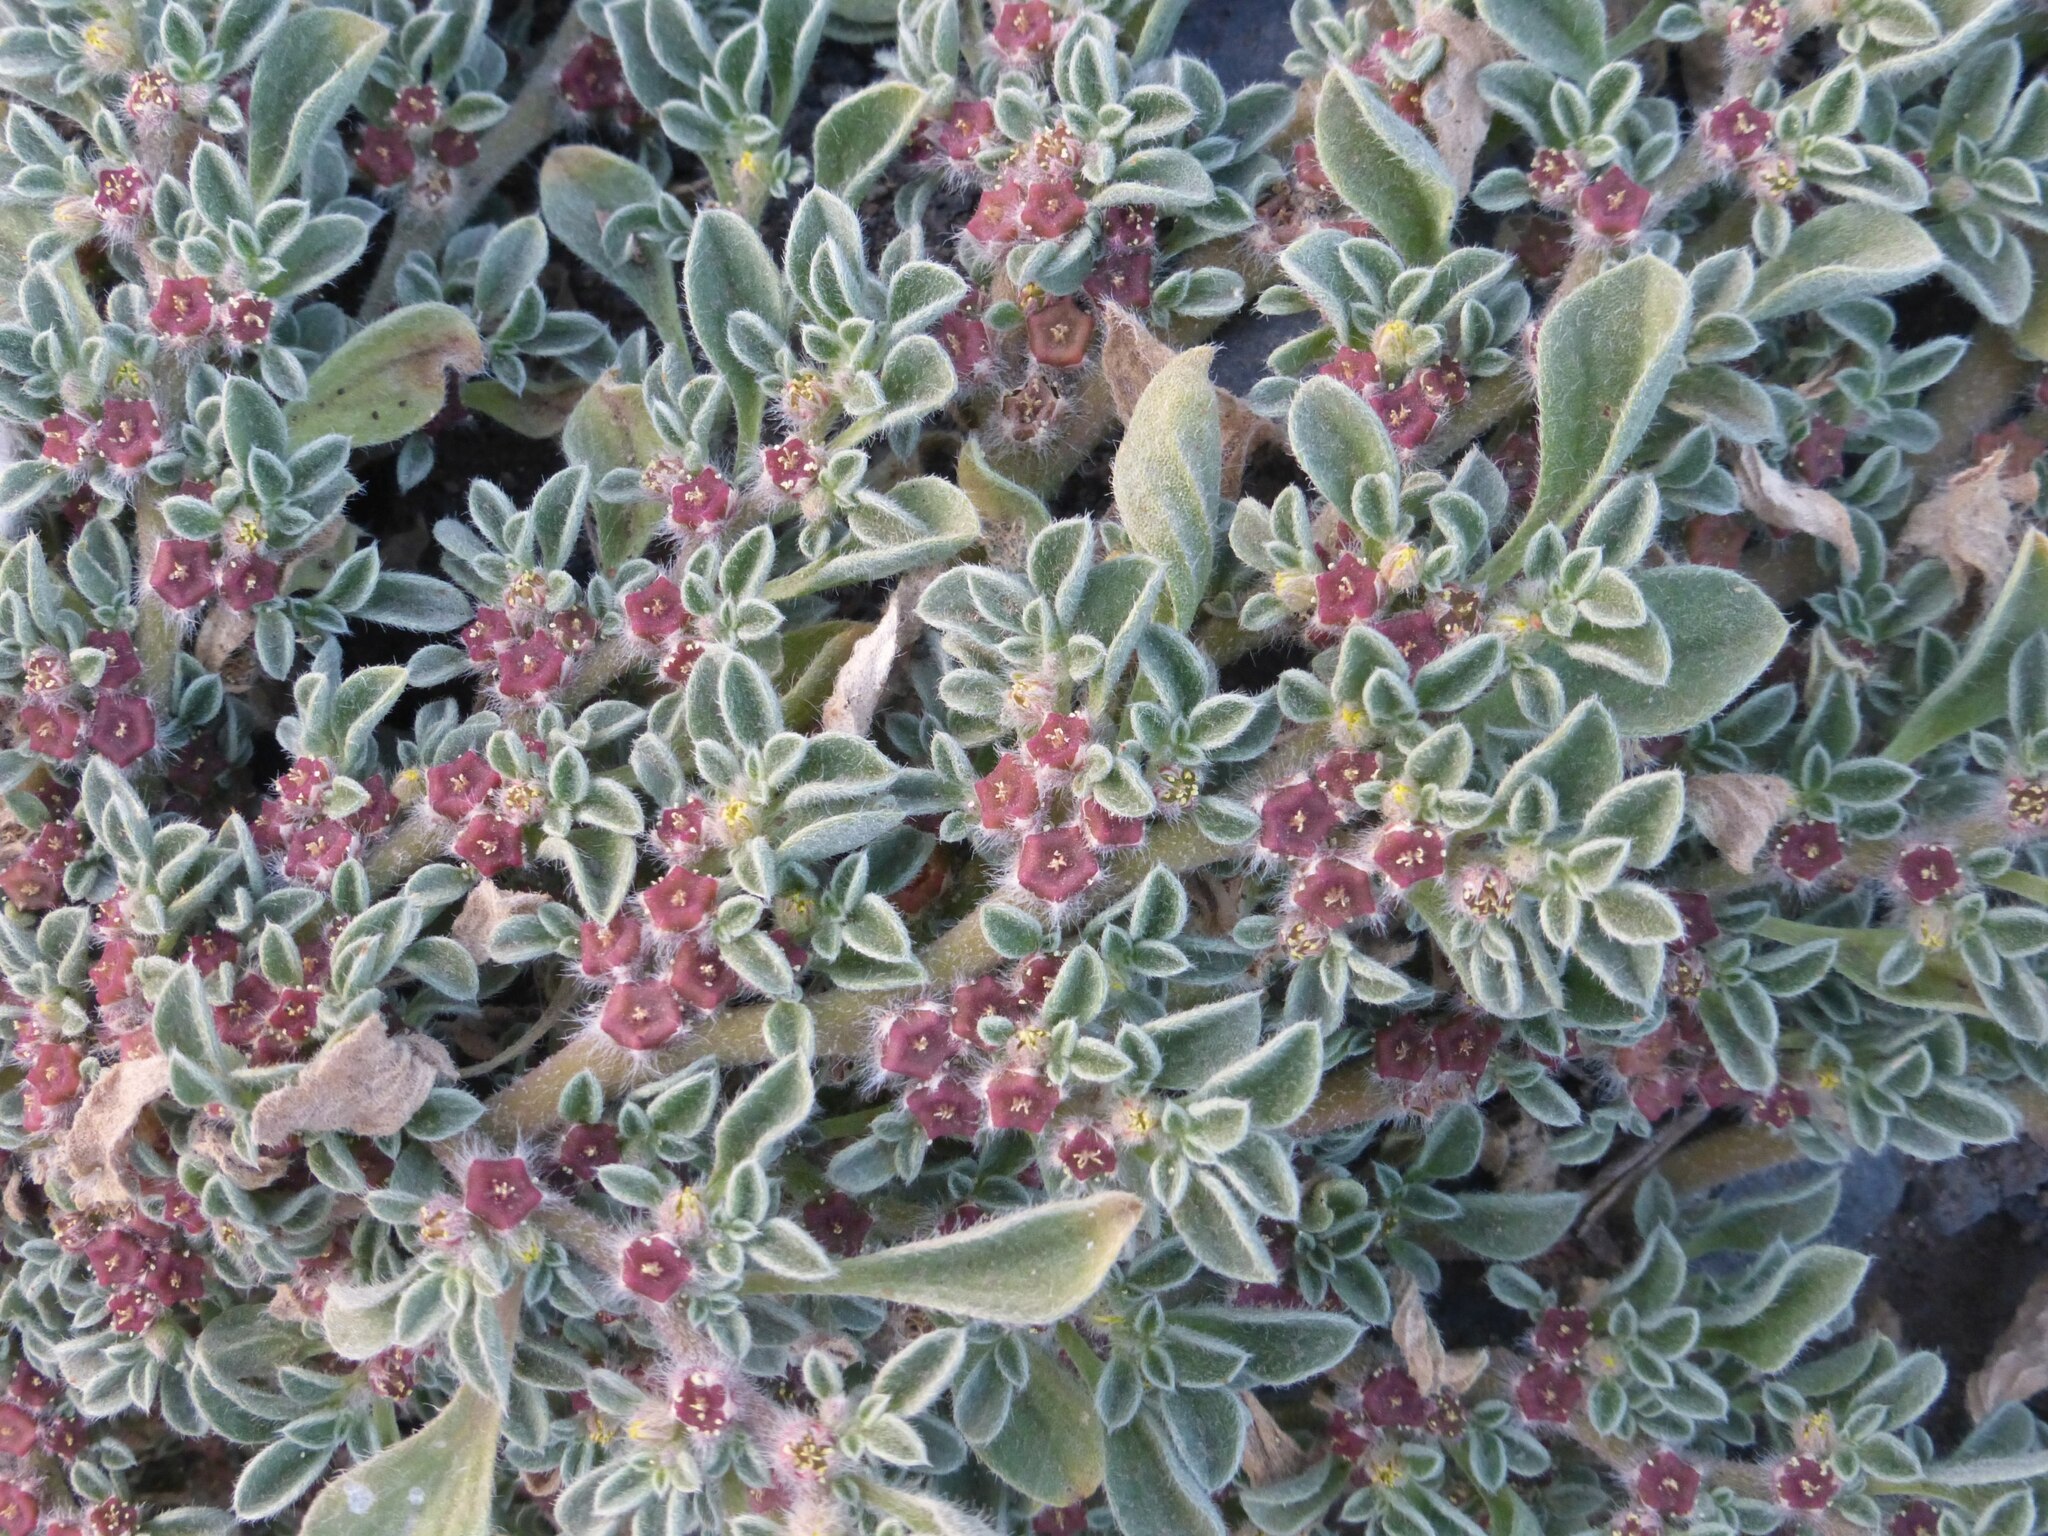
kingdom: Plantae
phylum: Tracheophyta
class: Magnoliopsida
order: Caryophyllales
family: Aizoaceae
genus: Aizoon
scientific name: Aizoon canariense
